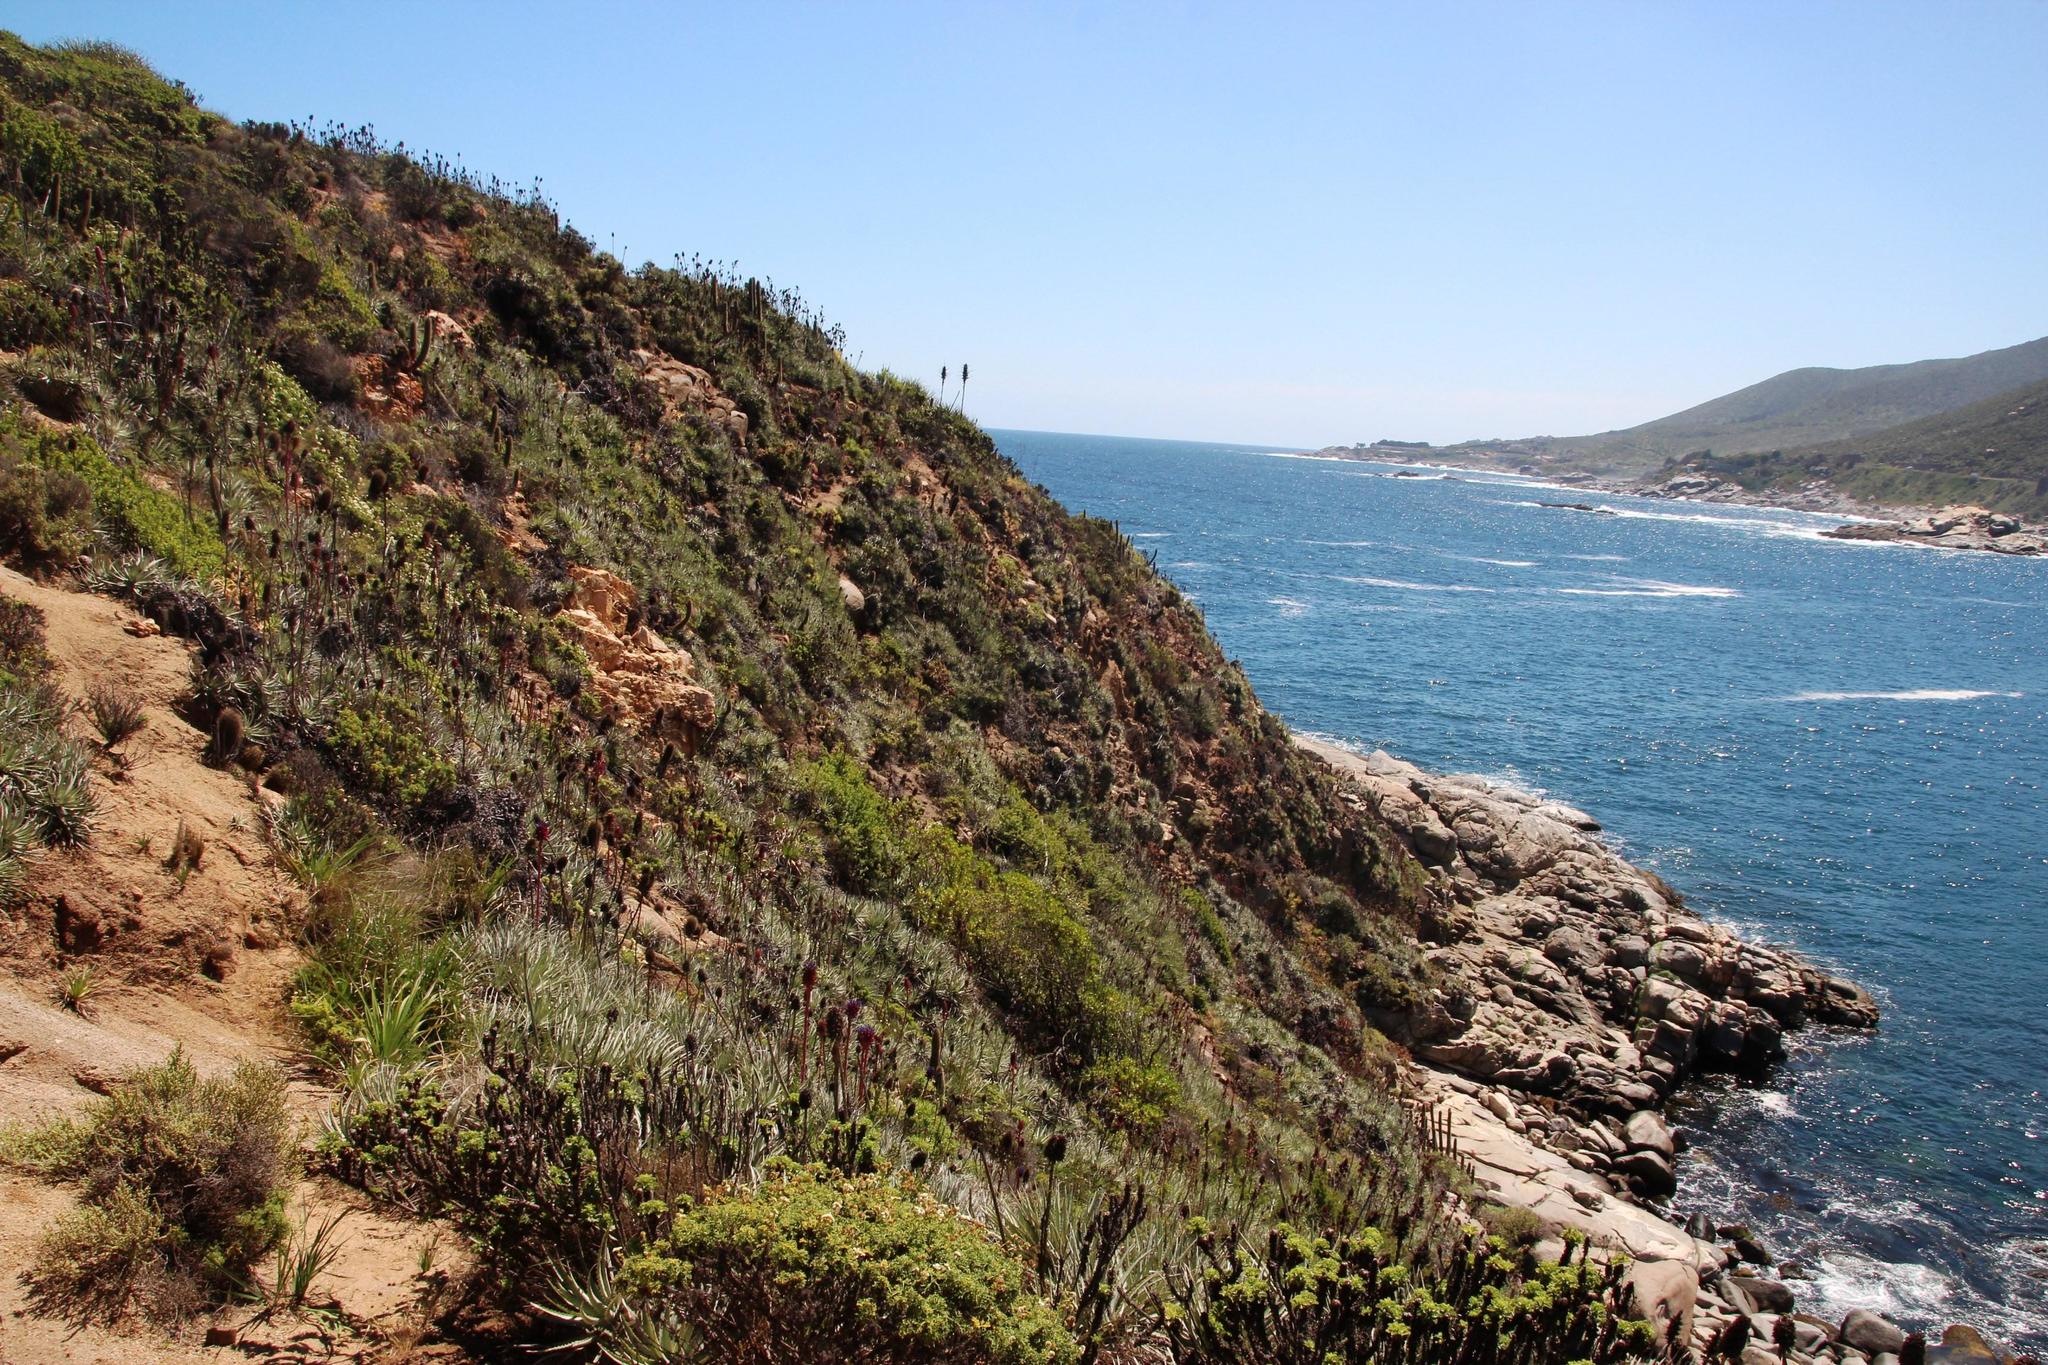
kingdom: Plantae
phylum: Tracheophyta
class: Liliopsida
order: Poales
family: Bromeliaceae
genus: Puya
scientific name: Puya venusta
